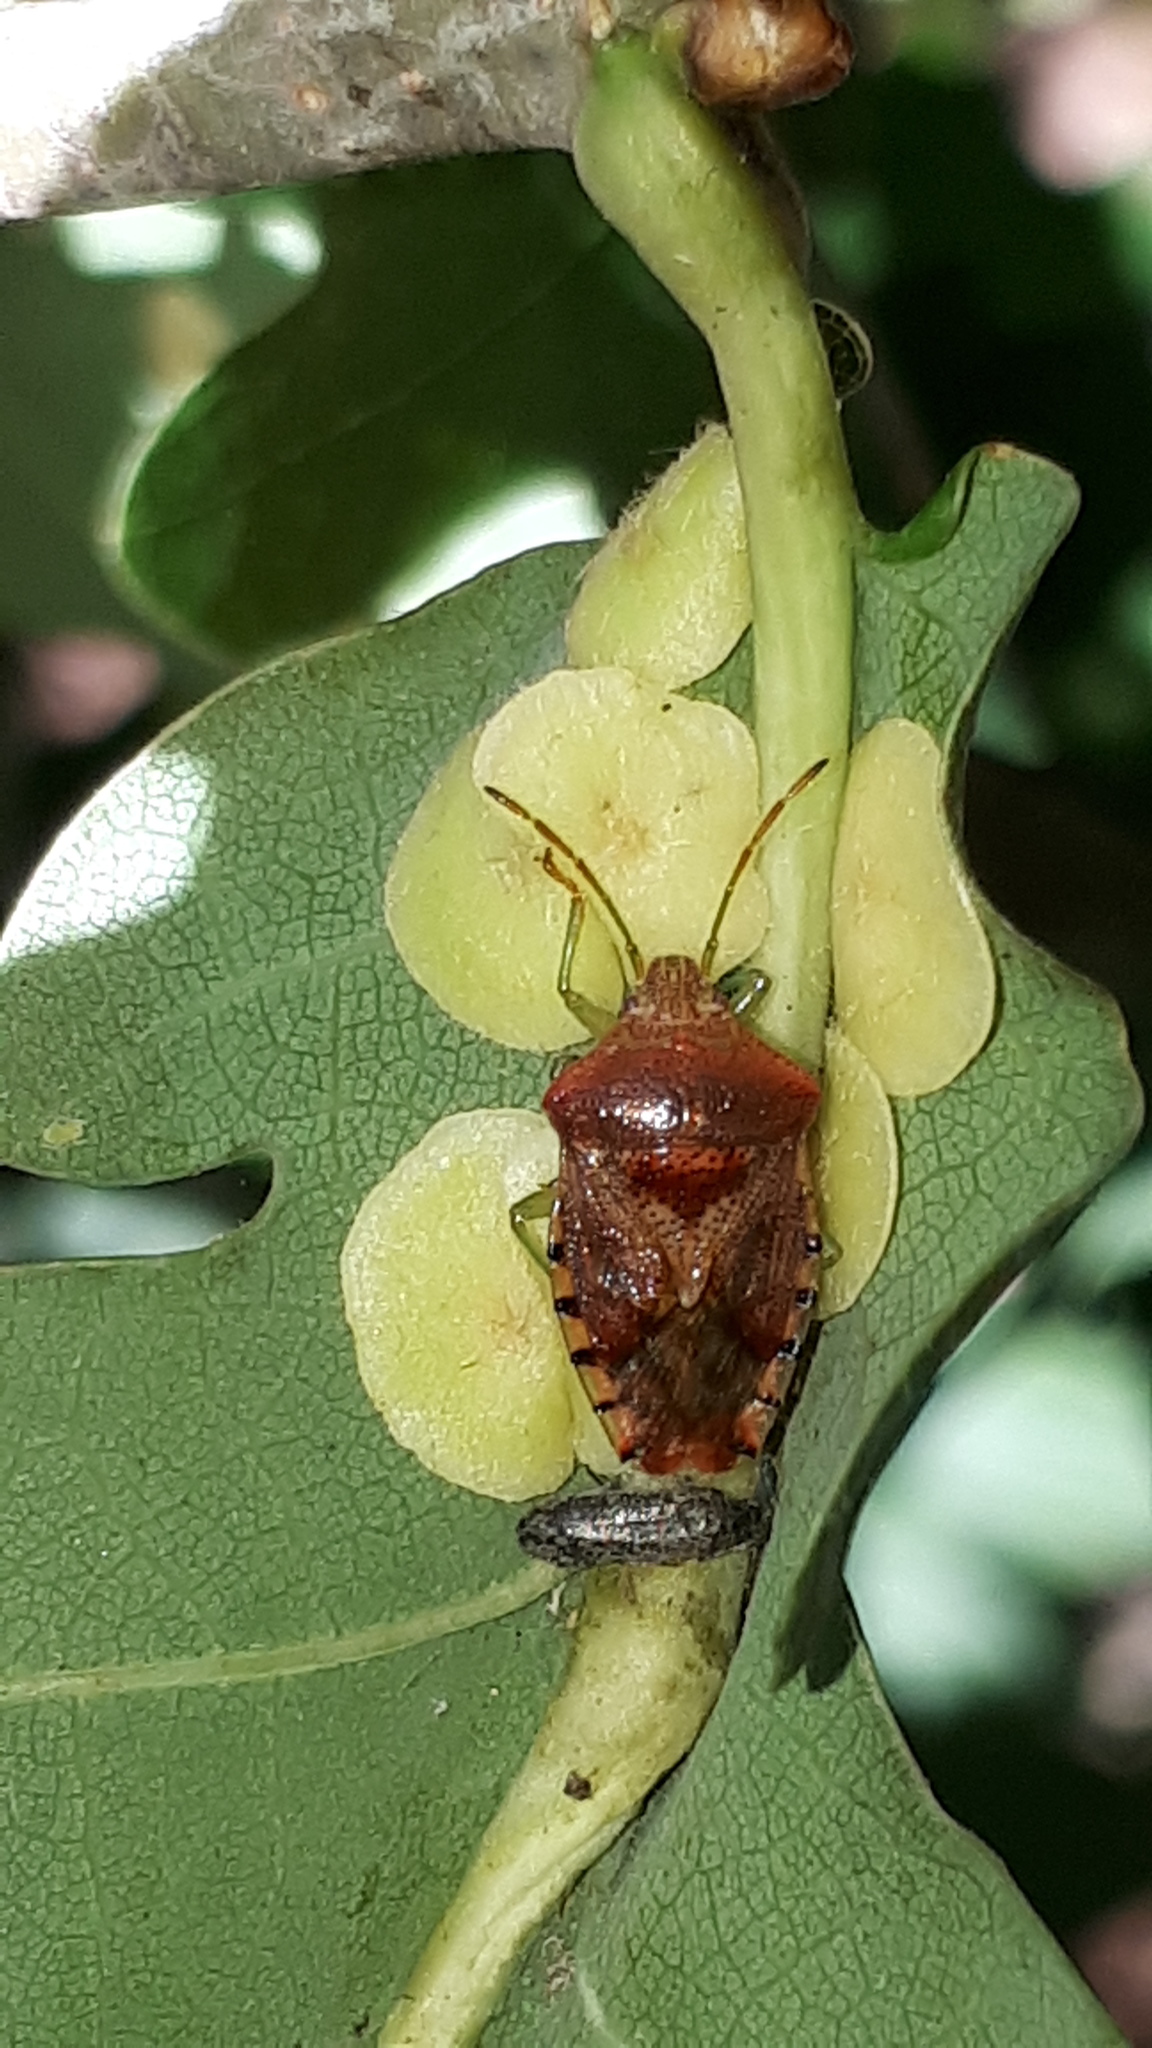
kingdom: Animalia
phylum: Arthropoda
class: Insecta
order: Hemiptera
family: Acanthosomatidae
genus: Elasmucha
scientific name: Elasmucha grisea
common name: Parent bug
